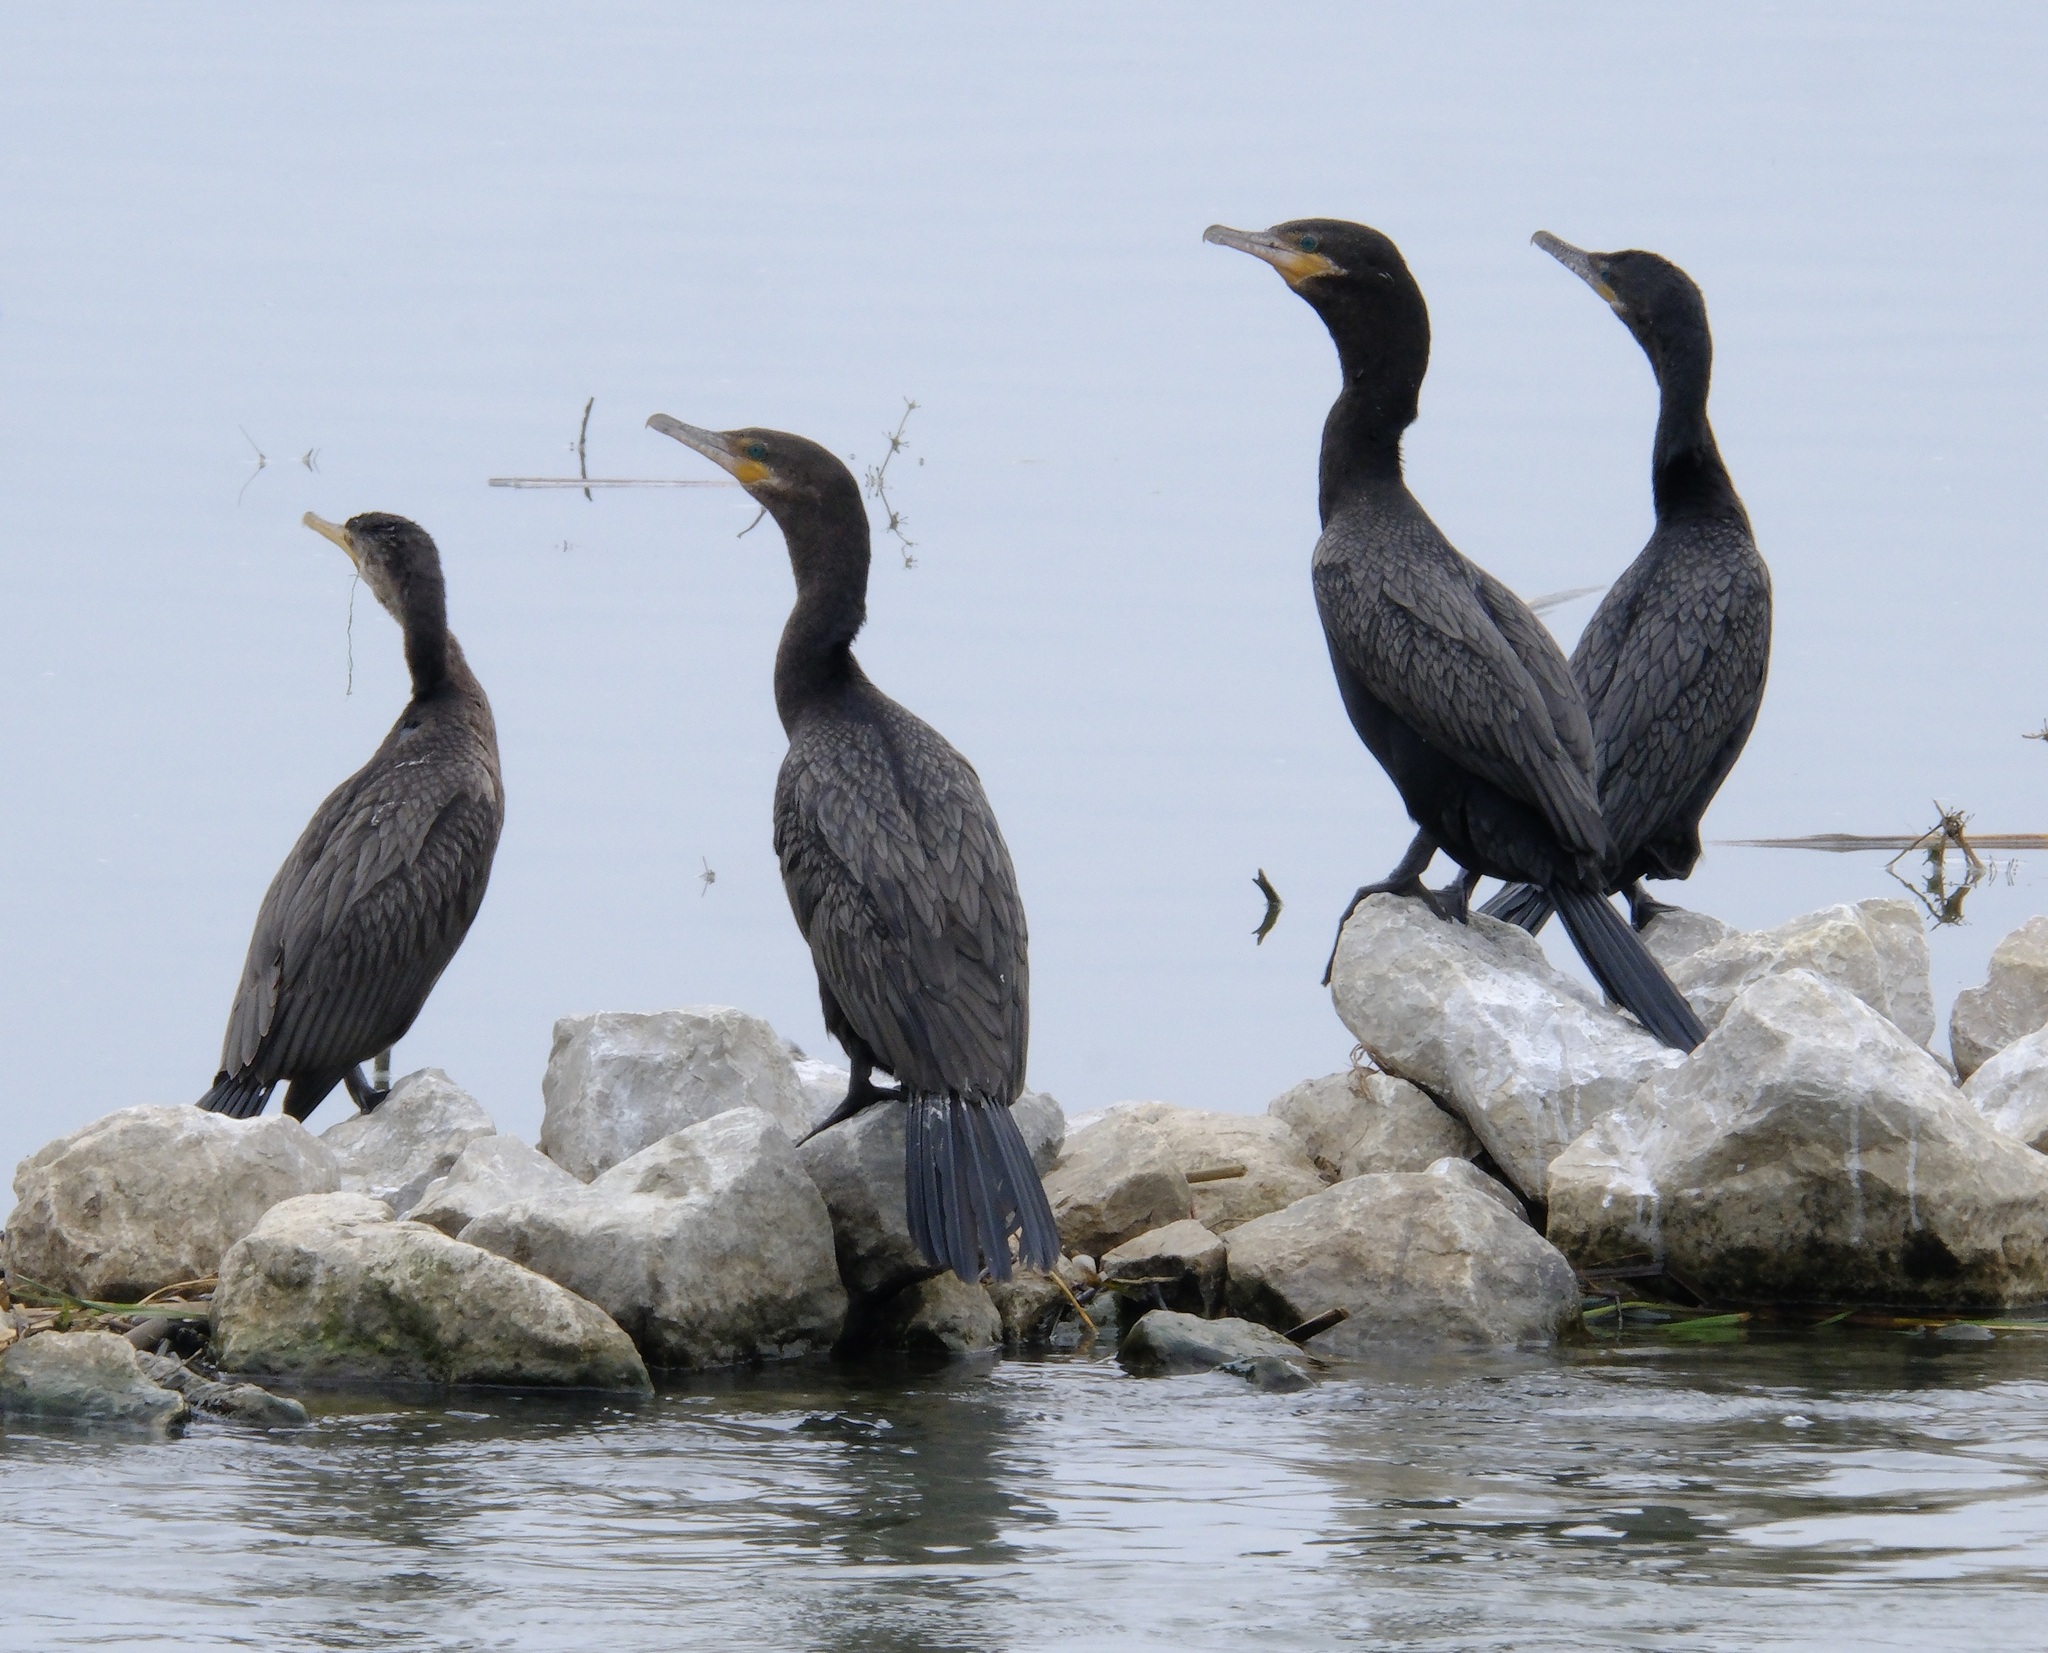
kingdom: Animalia
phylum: Chordata
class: Aves
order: Suliformes
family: Phalacrocoracidae
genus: Phalacrocorax
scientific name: Phalacrocorax brasilianus
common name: Neotropic cormorant
